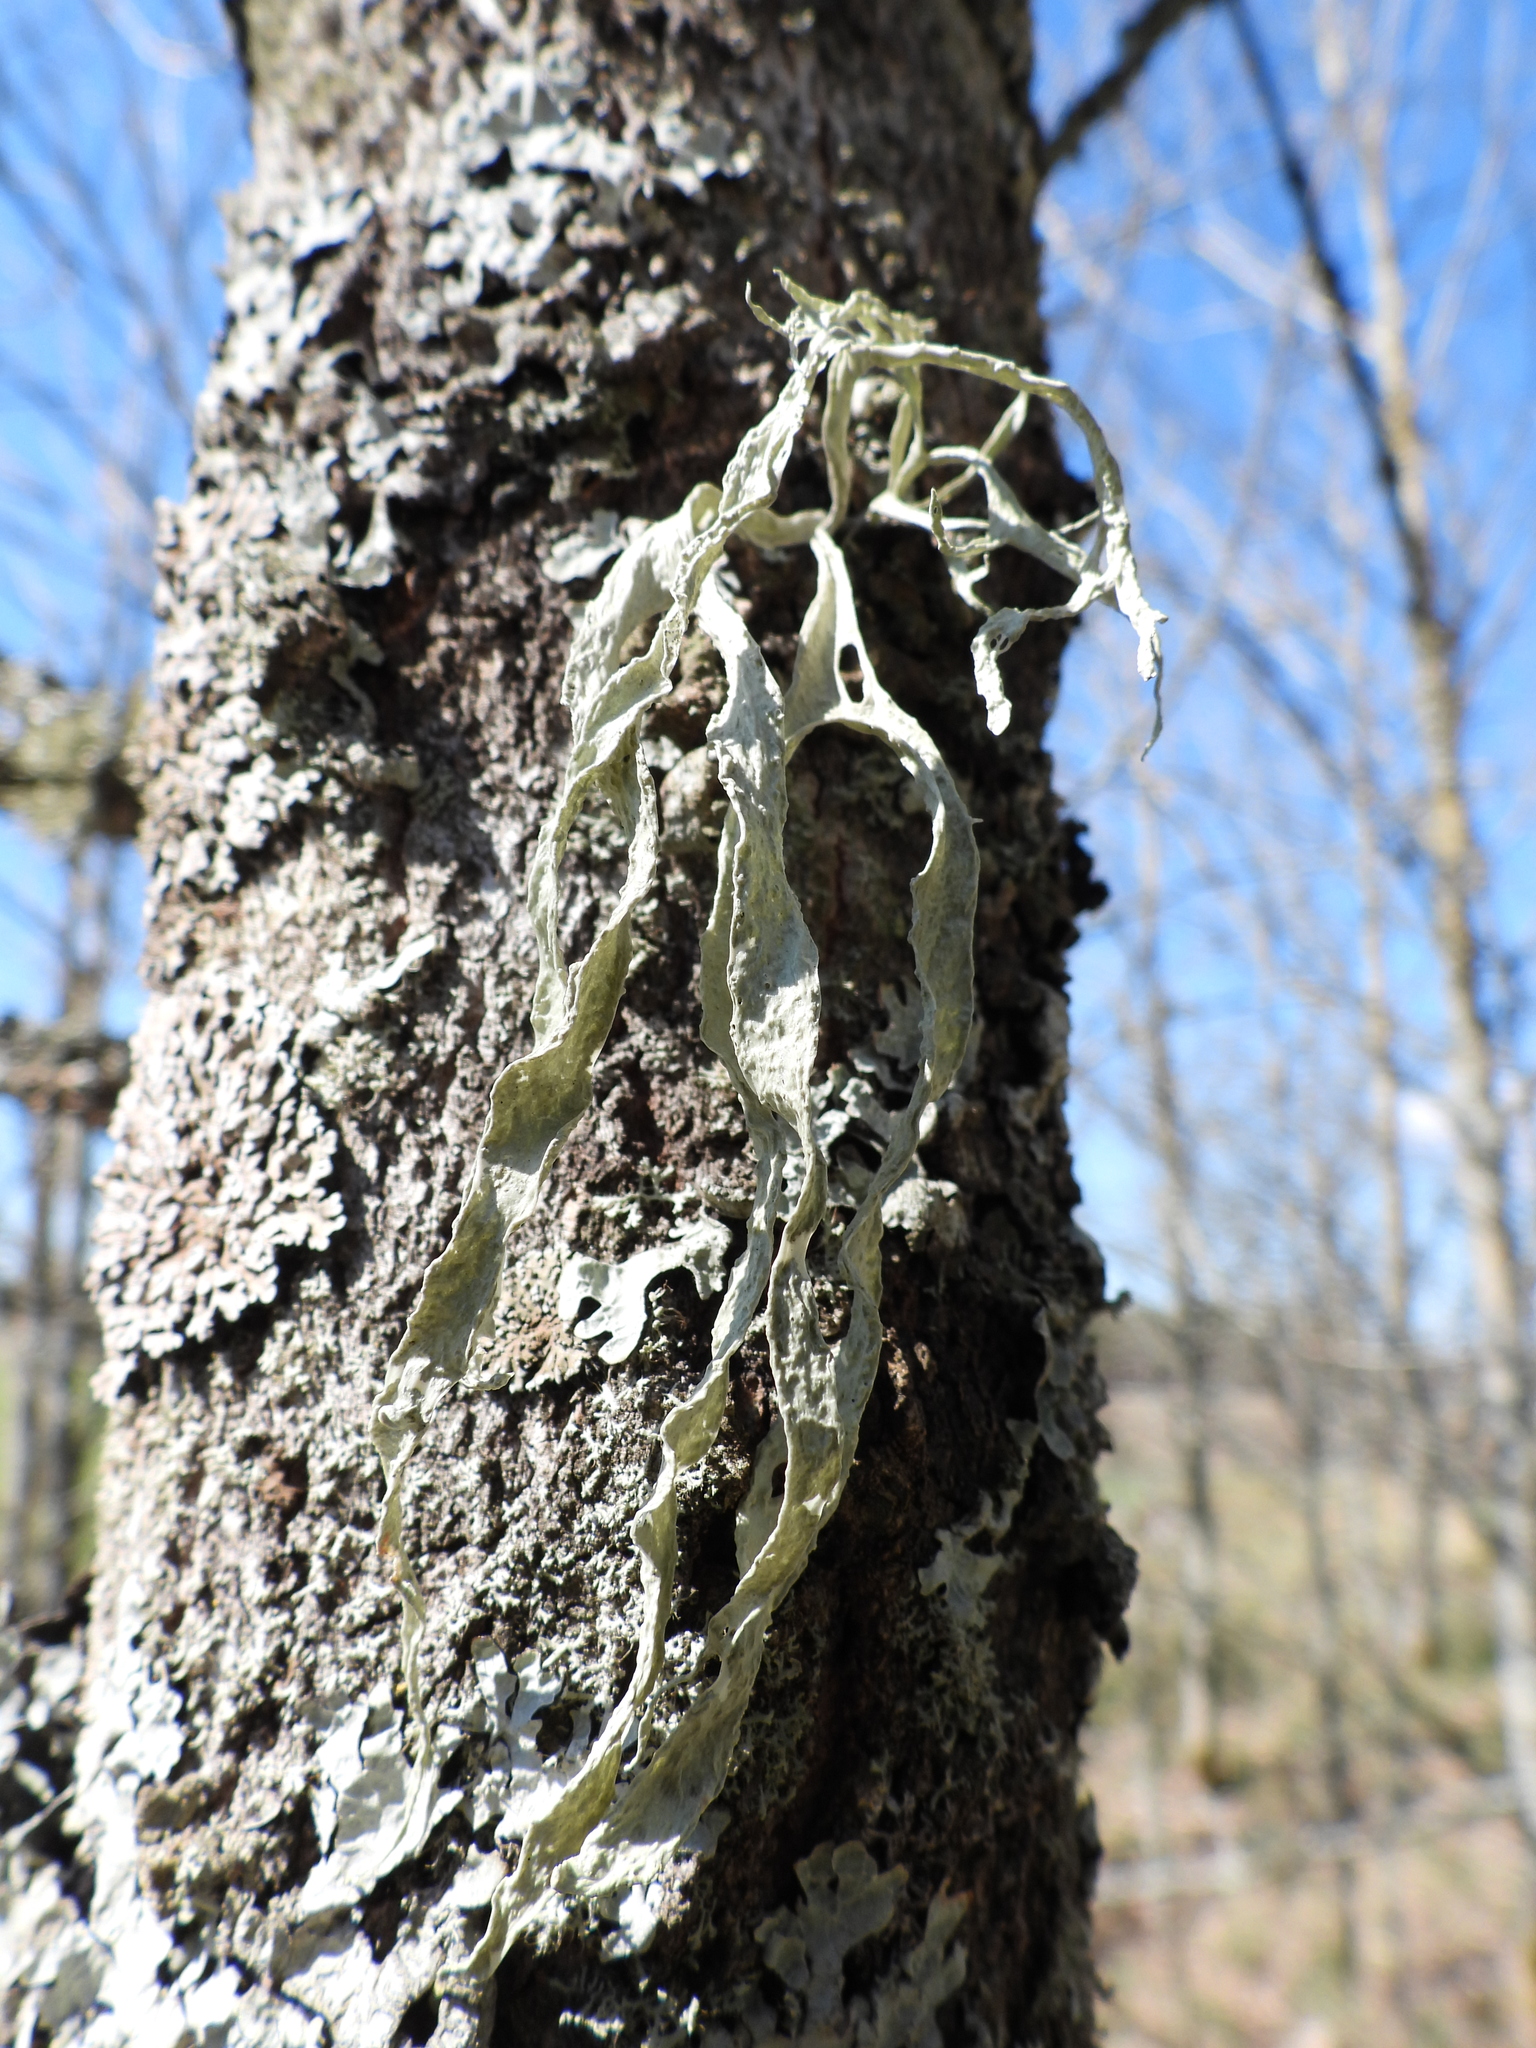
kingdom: Fungi
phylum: Ascomycota
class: Lecanoromycetes
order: Lecanorales
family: Ramalinaceae
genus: Ramalina
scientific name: Ramalina fraxinea
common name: Cartilage lichen
